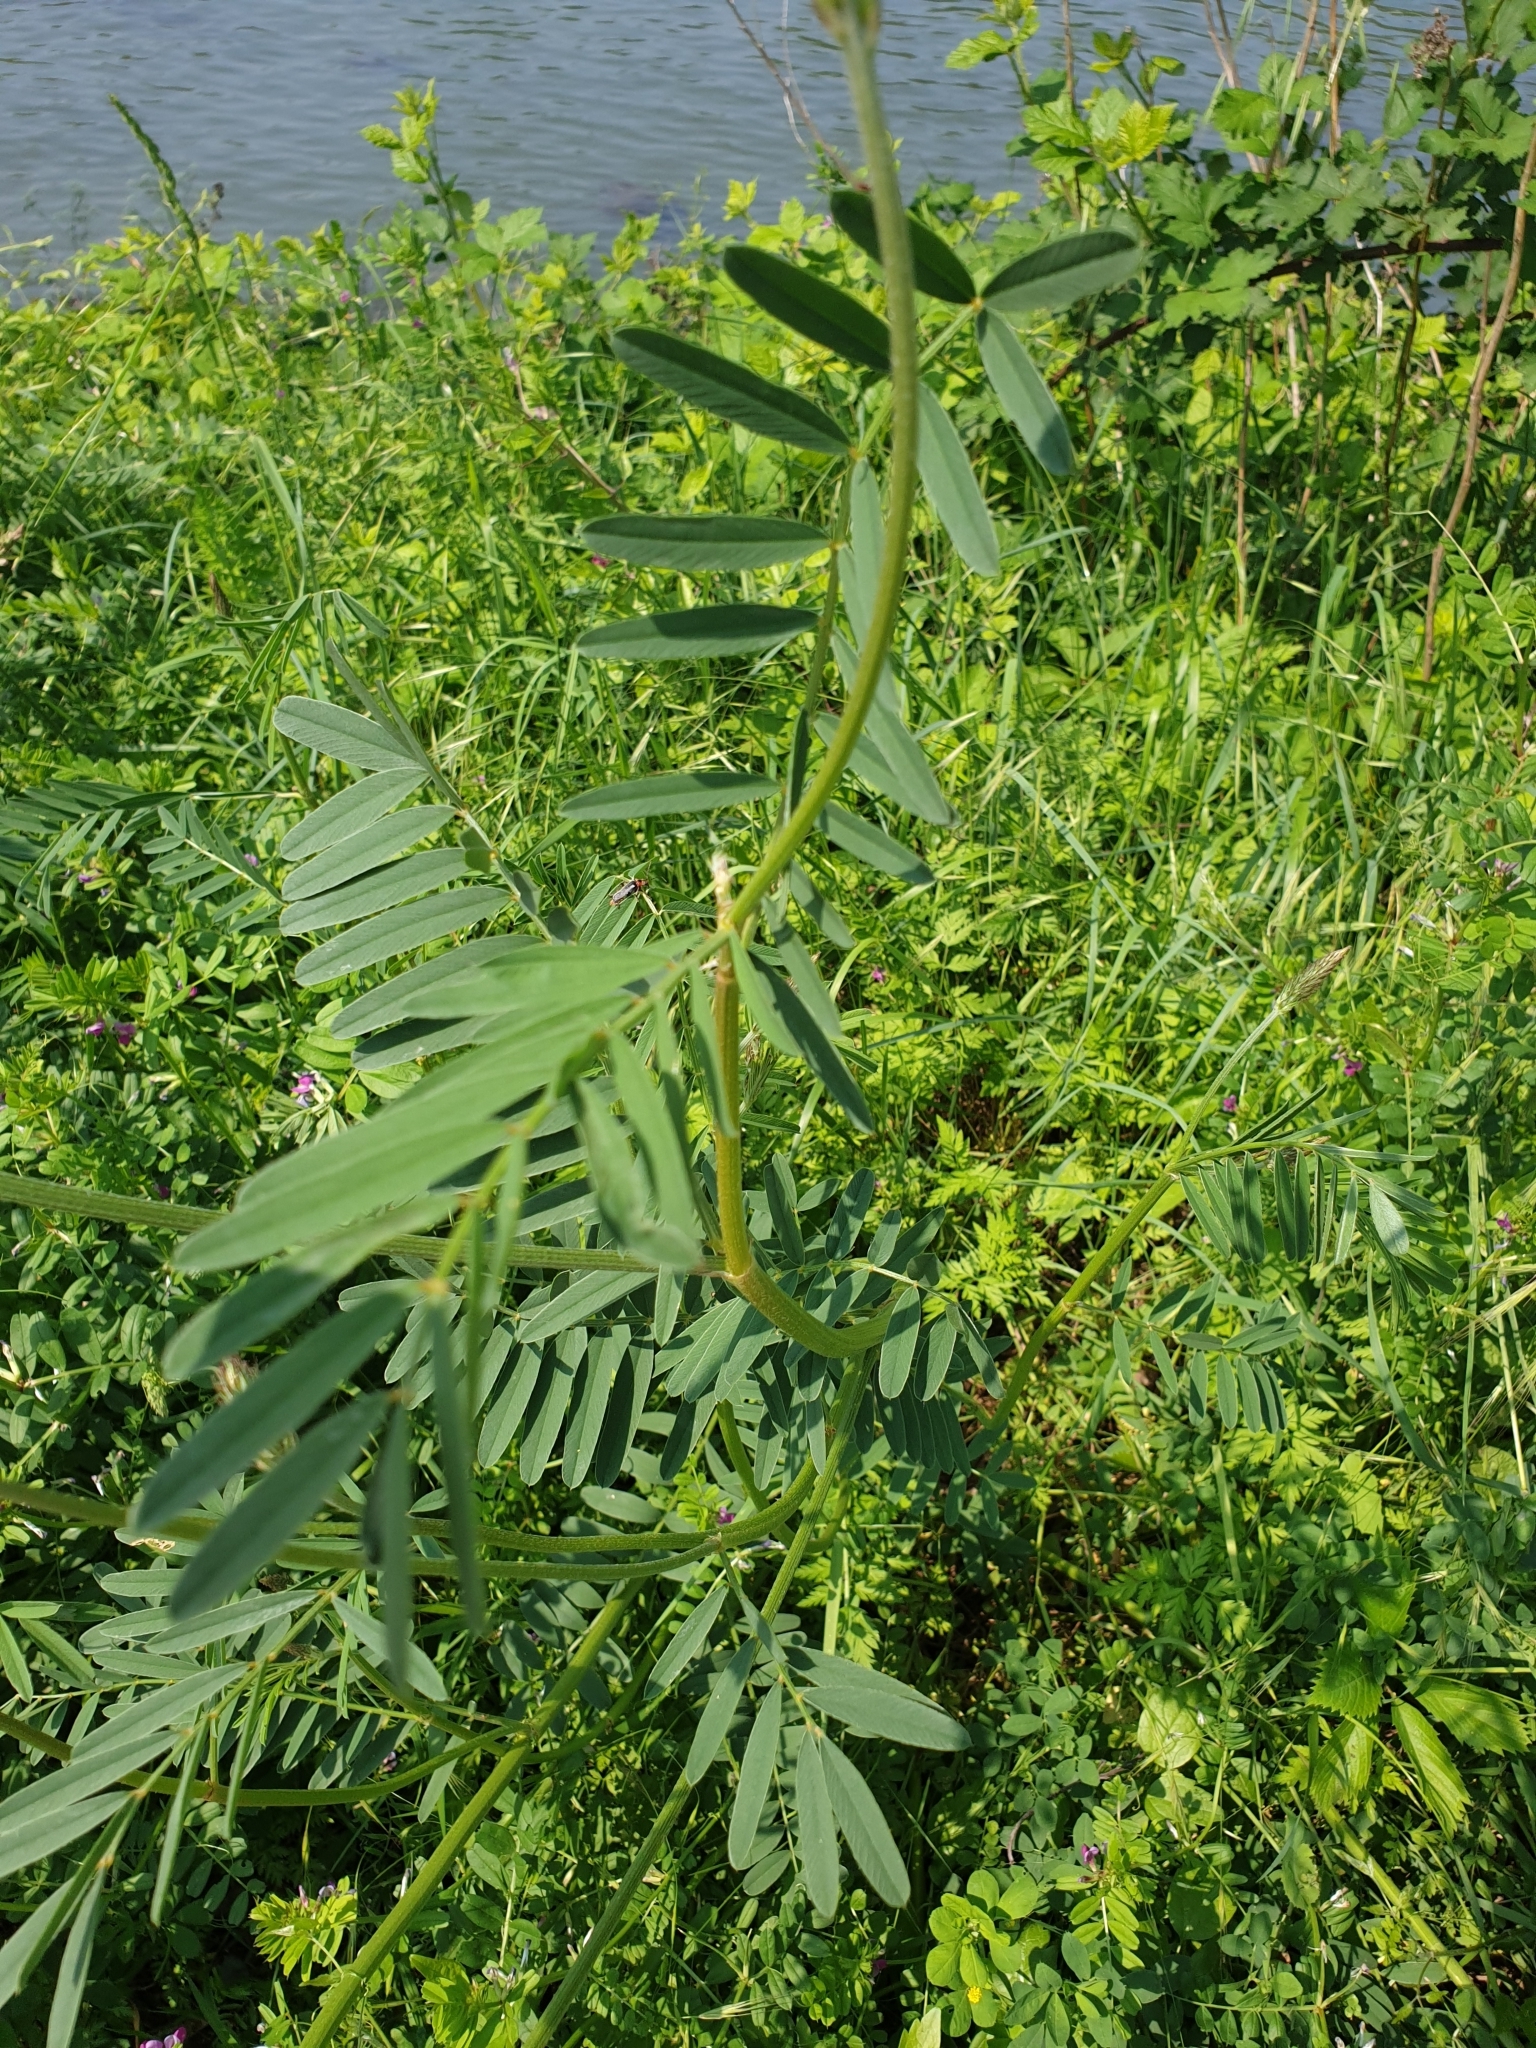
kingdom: Plantae
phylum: Tracheophyta
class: Magnoliopsida
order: Fabales
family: Fabaceae
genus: Onobrychis
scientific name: Onobrychis viciifolia
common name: Sainfoin
